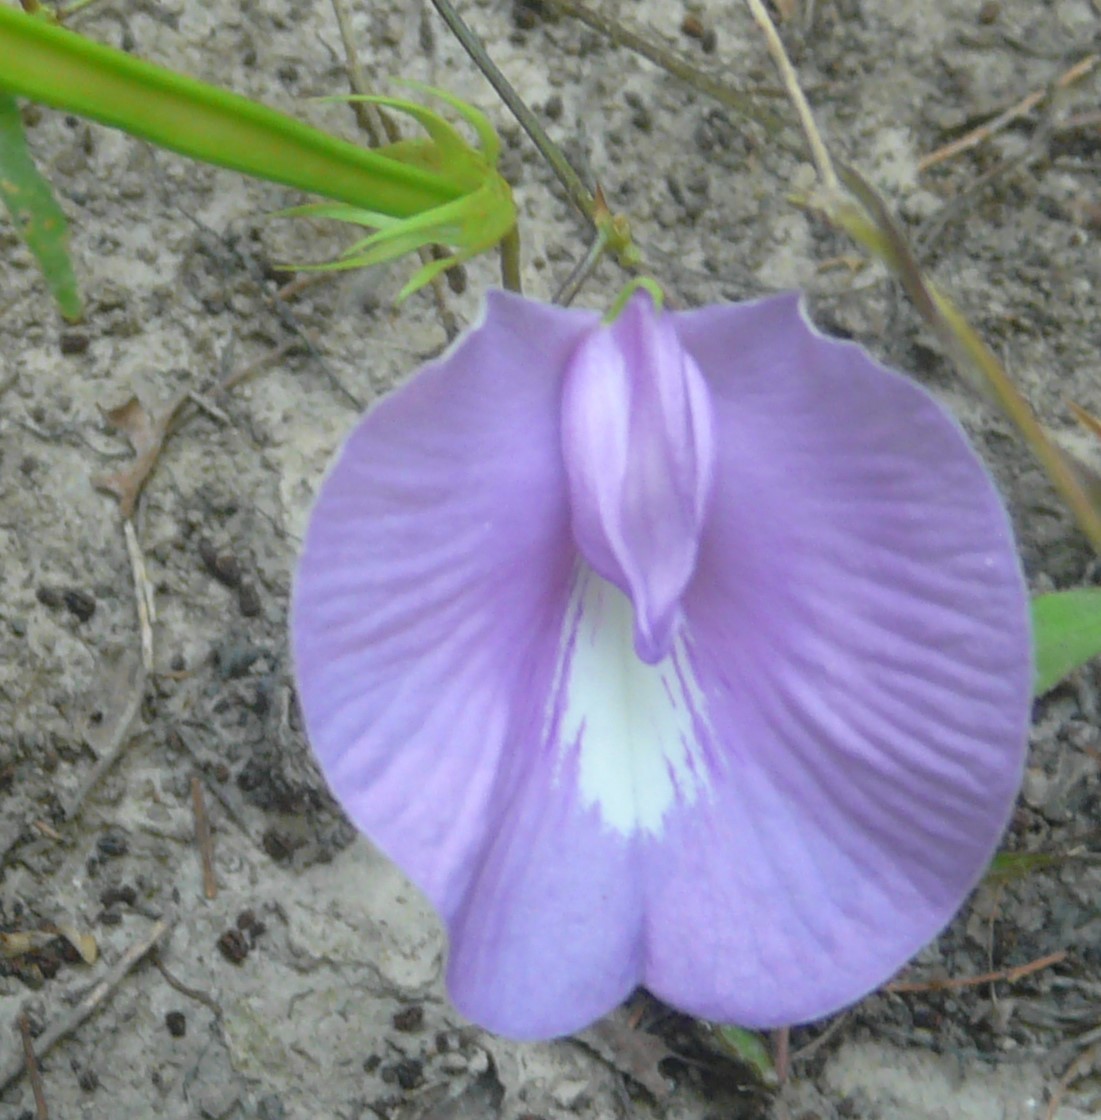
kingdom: Plantae
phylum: Tracheophyta
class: Magnoliopsida
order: Fabales
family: Fabaceae
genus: Centrosema
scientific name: Centrosema virginianum
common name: Butterfly-pea
